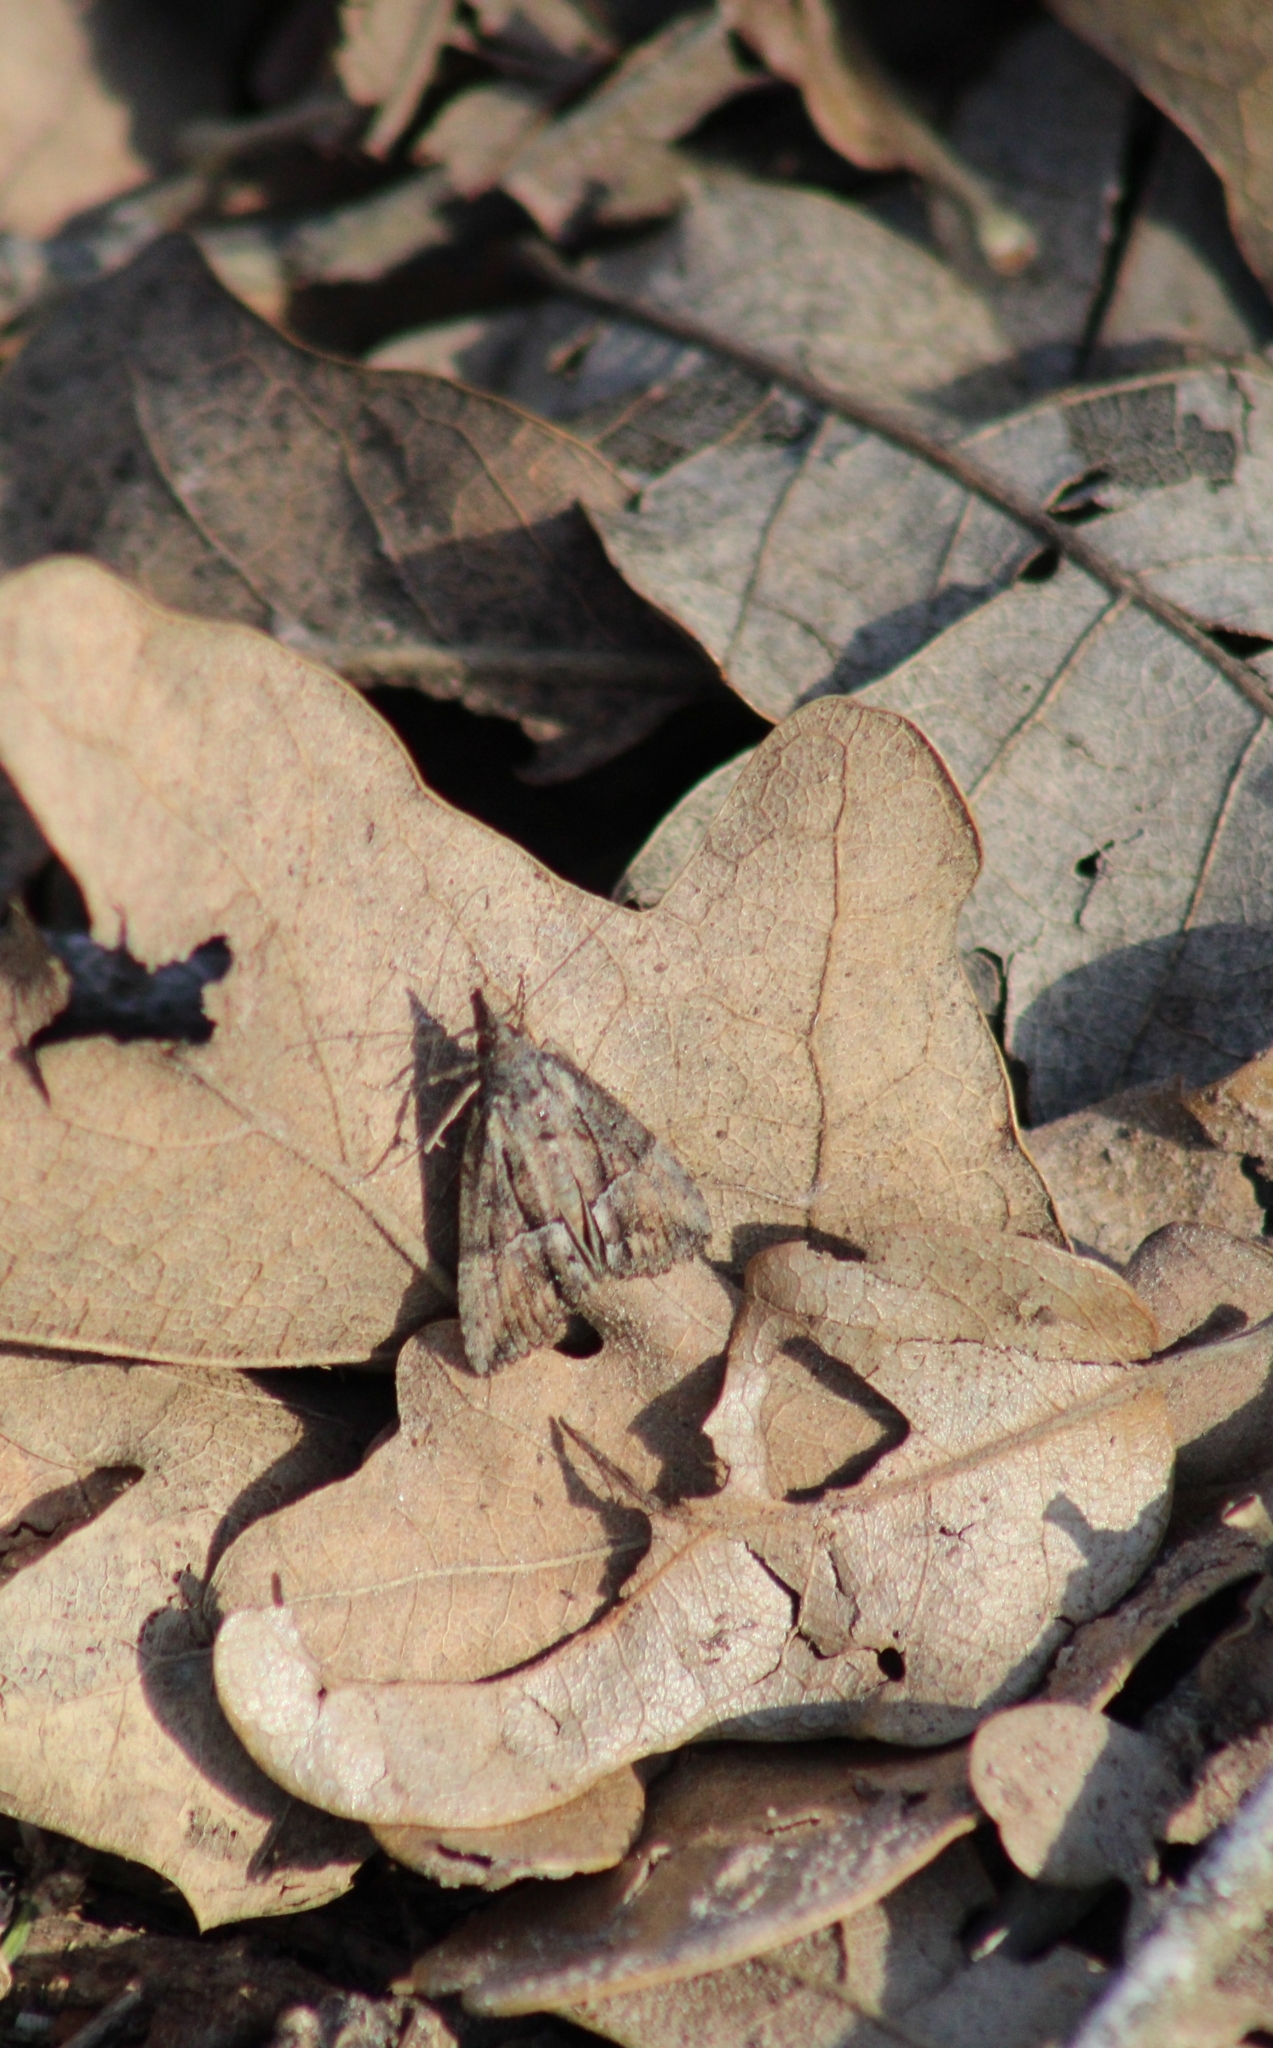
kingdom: Animalia
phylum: Arthropoda
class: Insecta
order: Lepidoptera
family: Erebidae
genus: Hypena
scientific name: Hypena scabra
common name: Green cloverworm
